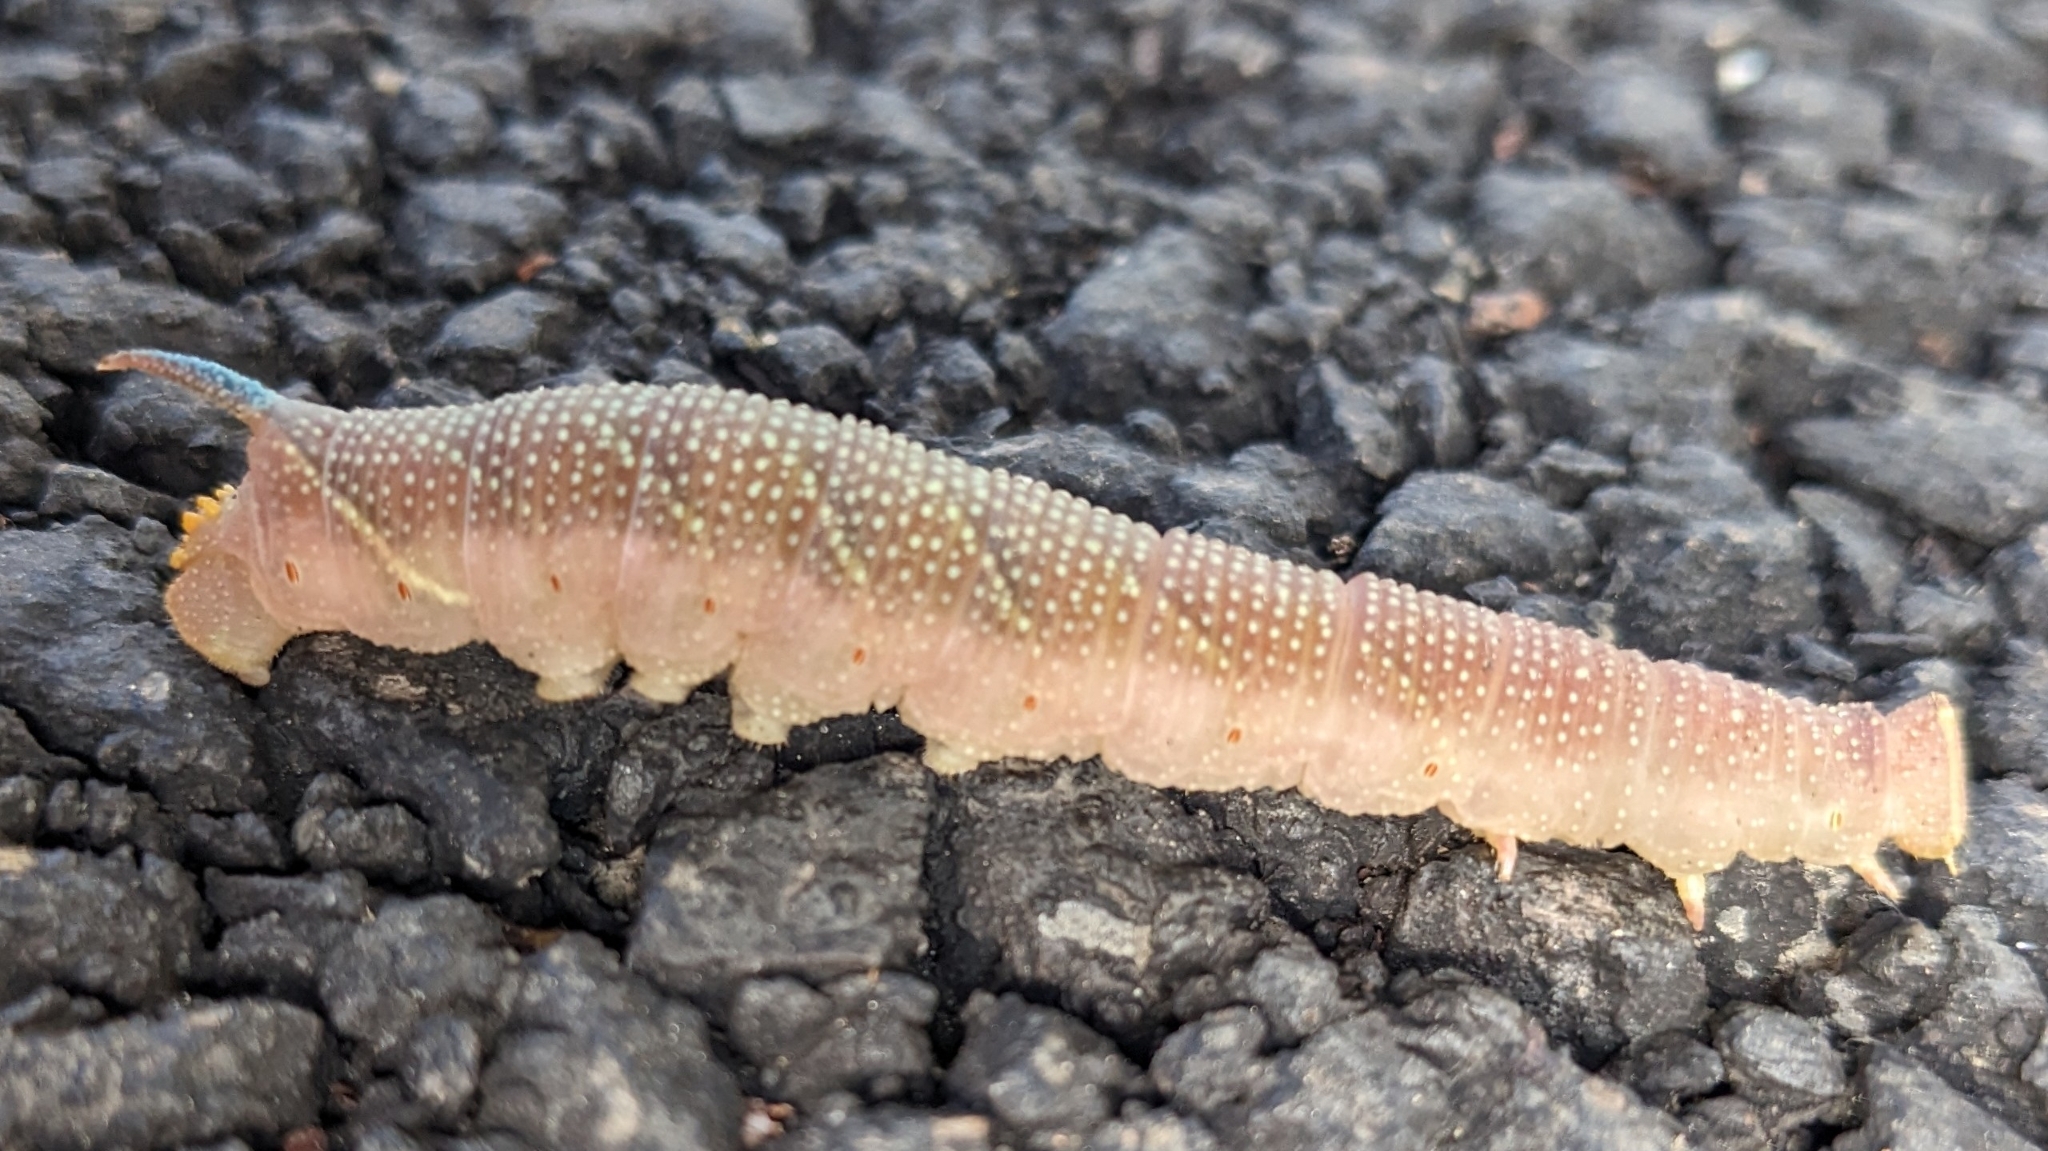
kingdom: Animalia
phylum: Arthropoda
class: Insecta
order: Lepidoptera
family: Sphingidae
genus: Mimas
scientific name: Mimas tiliae
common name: Lime hawk-moth
